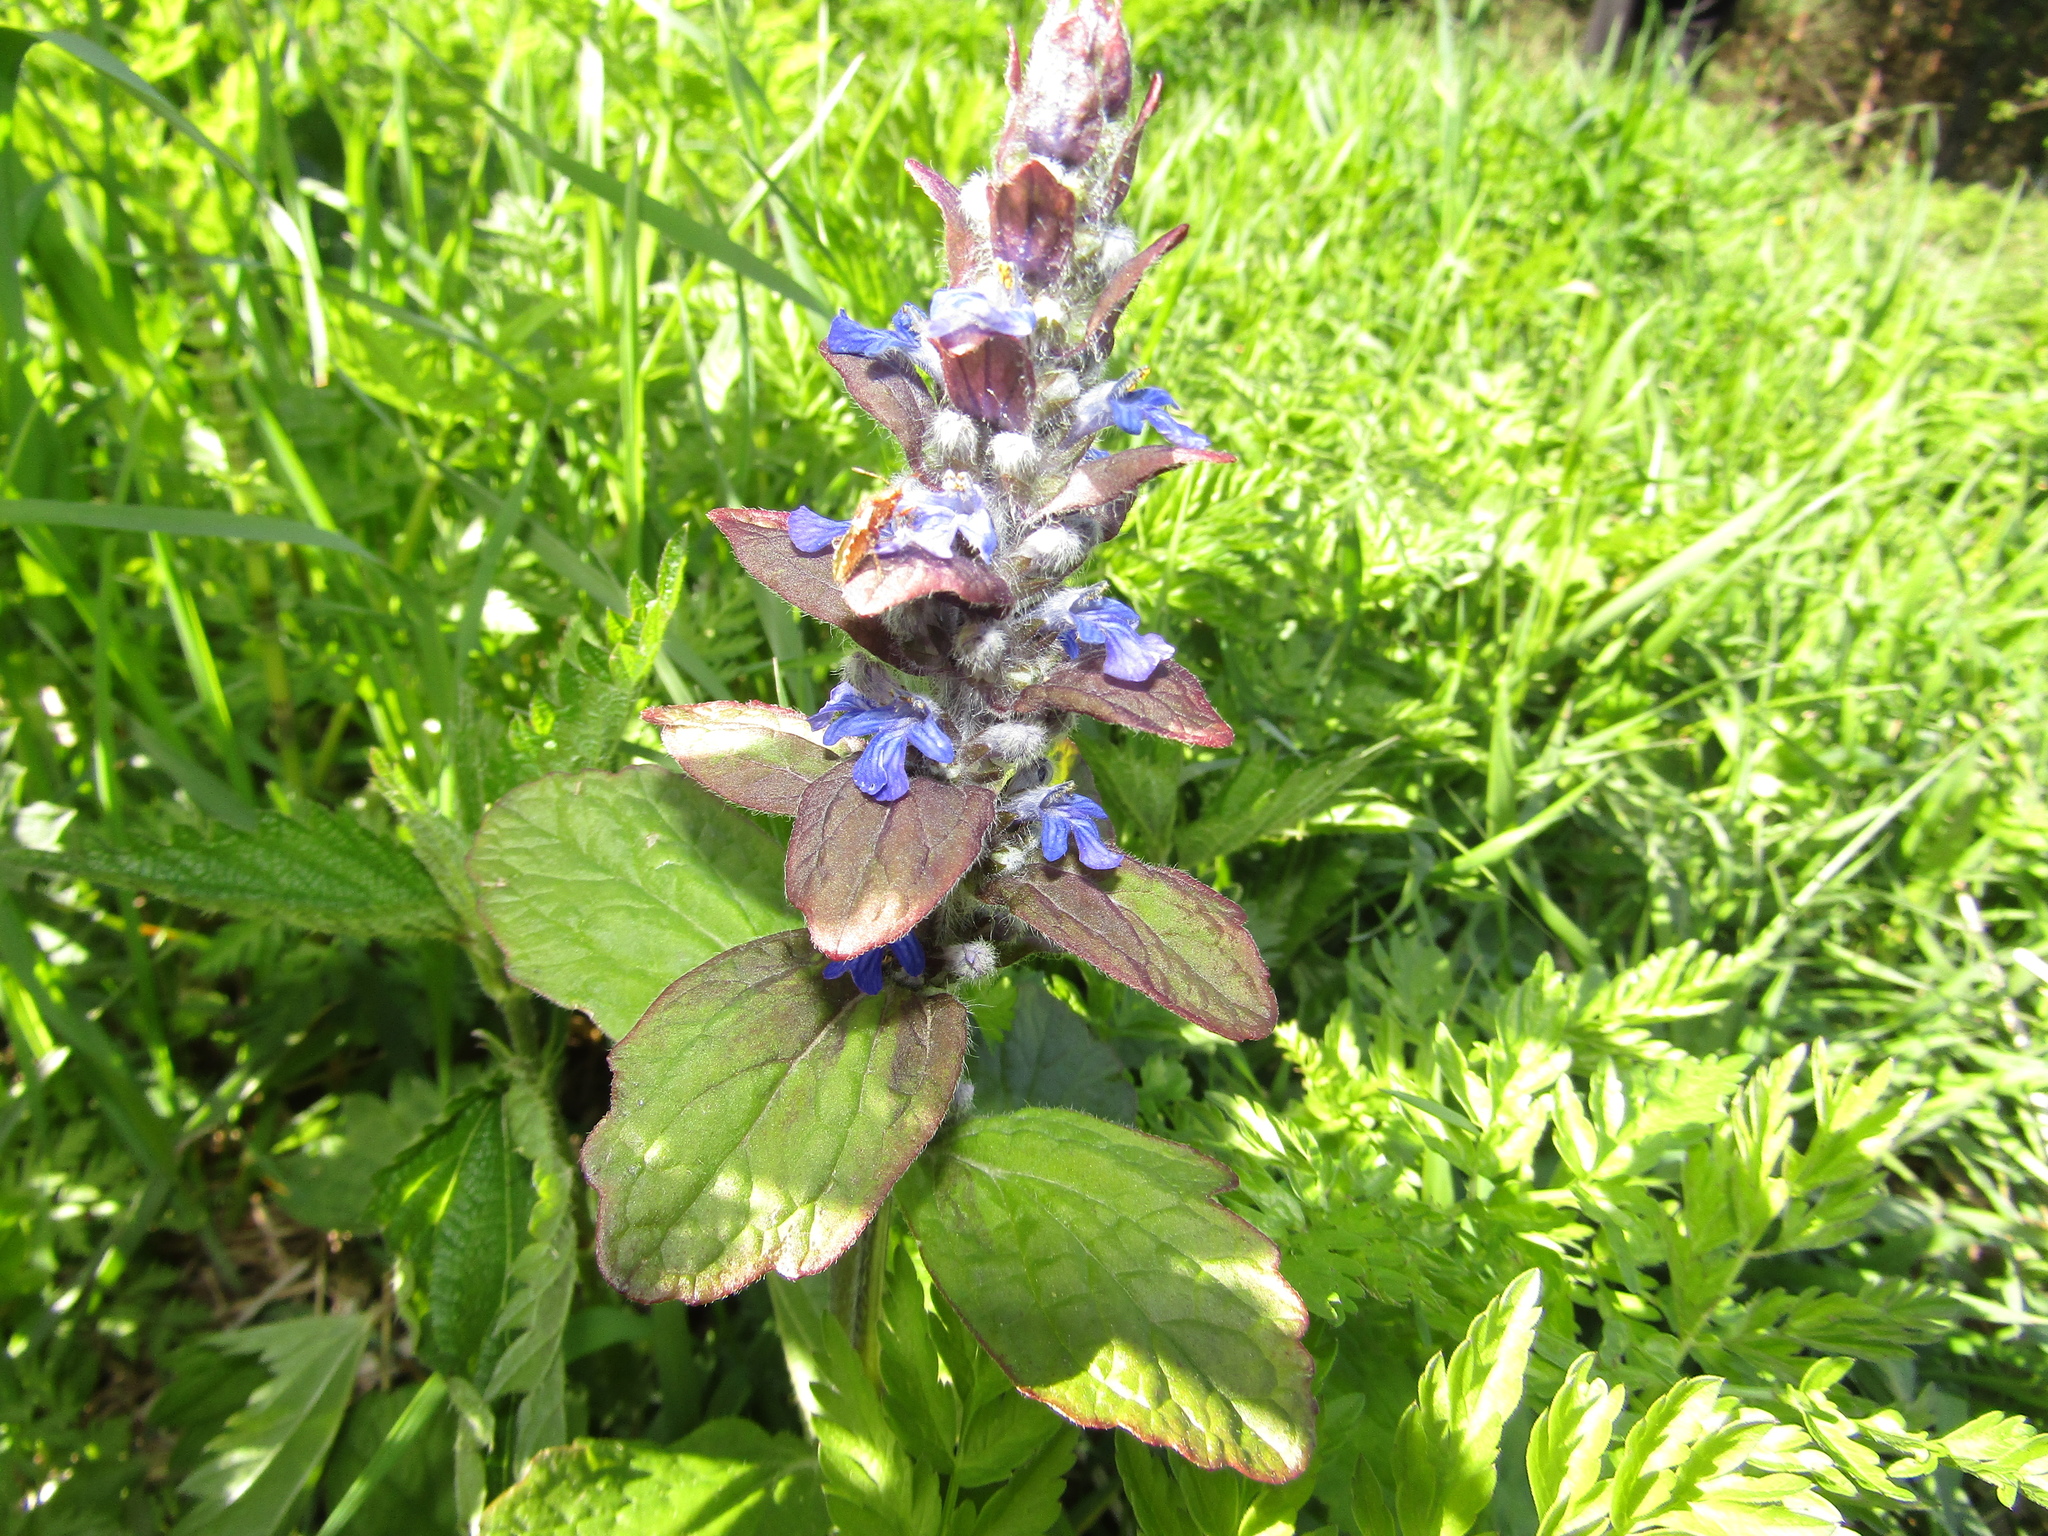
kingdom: Plantae
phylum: Tracheophyta
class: Magnoliopsida
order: Lamiales
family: Lamiaceae
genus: Ajuga
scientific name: Ajuga reptans
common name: Bugle
